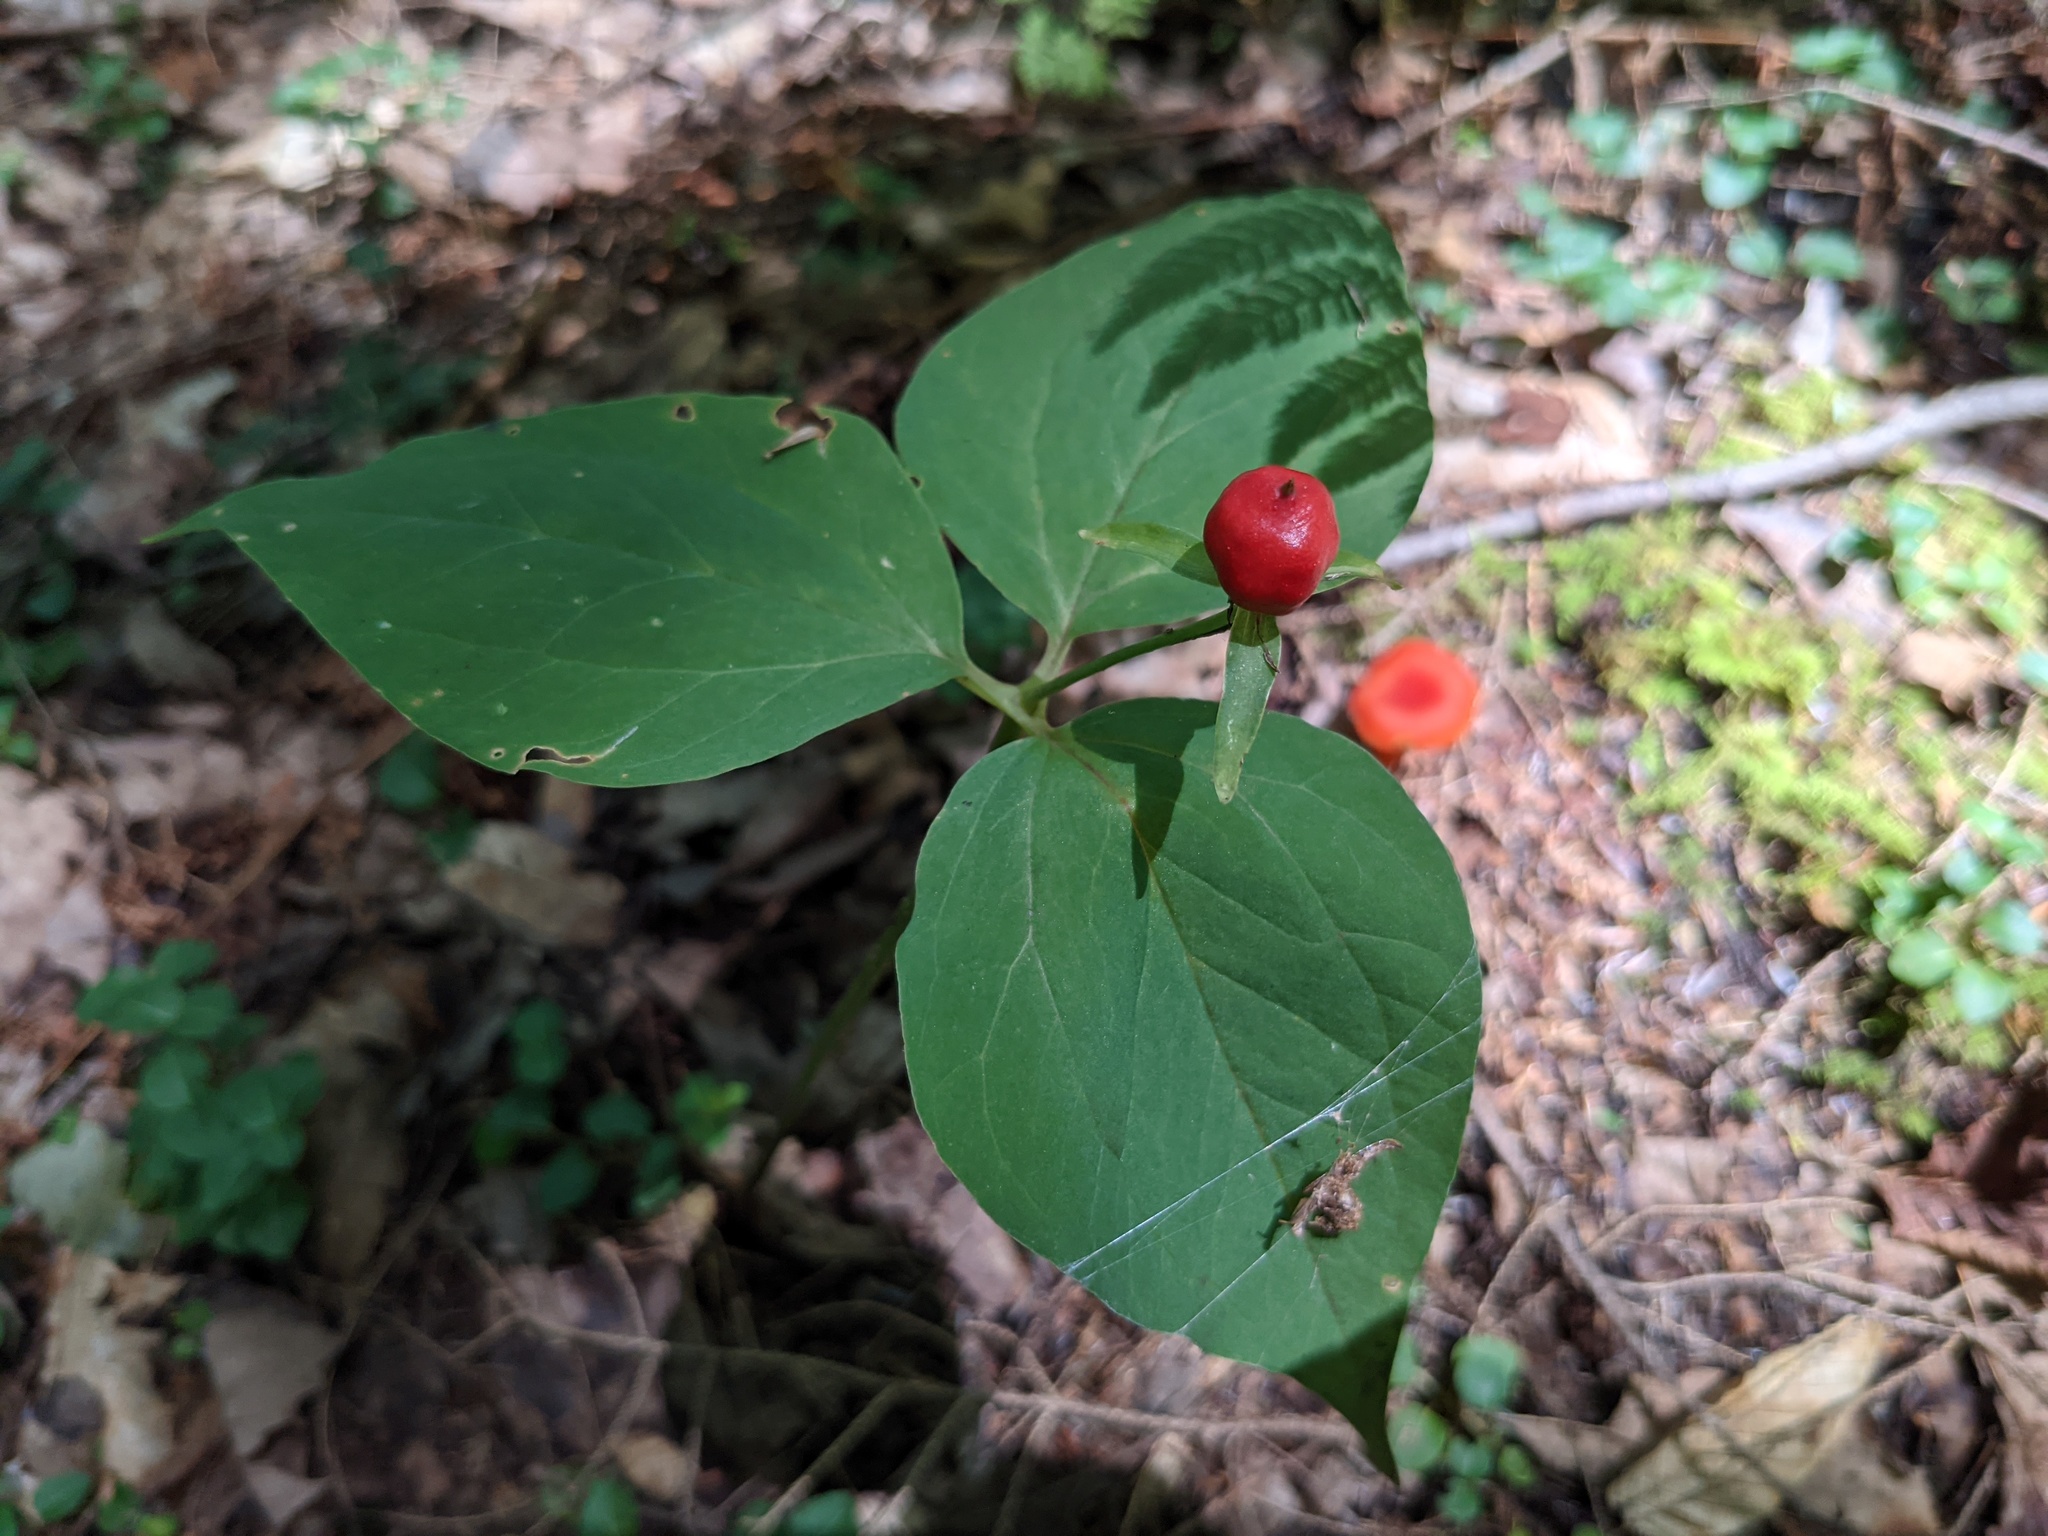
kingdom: Plantae
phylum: Tracheophyta
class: Liliopsida
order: Liliales
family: Melanthiaceae
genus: Trillium
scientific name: Trillium undulatum
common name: Paint trillium
